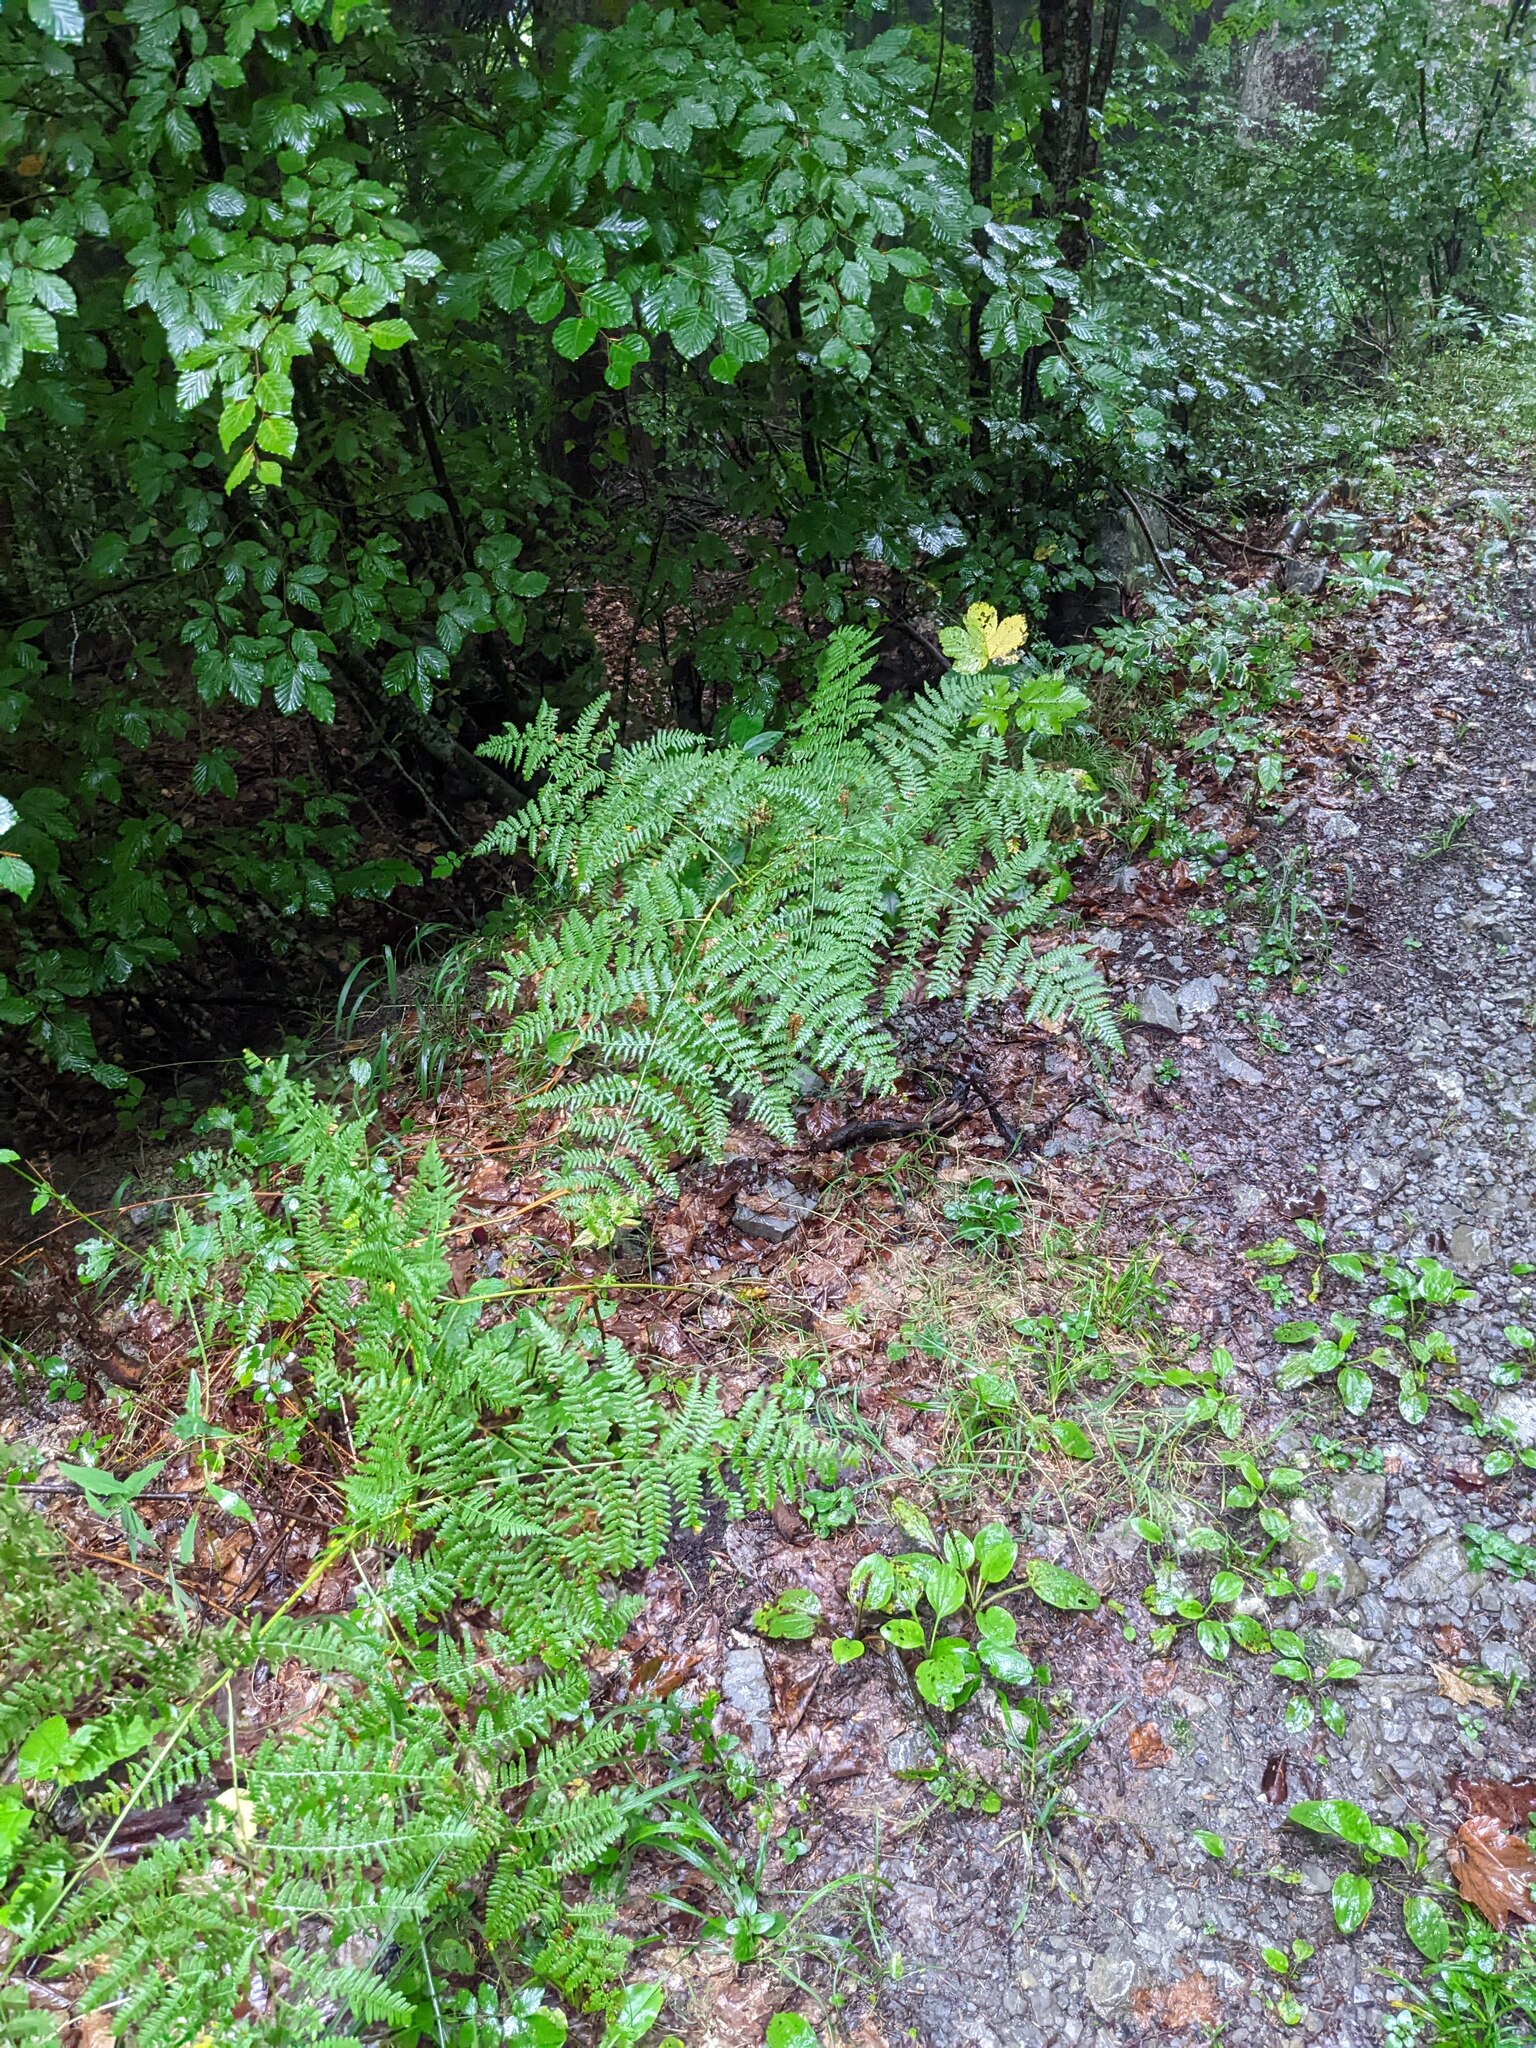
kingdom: Plantae
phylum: Tracheophyta
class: Polypodiopsida
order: Polypodiales
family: Dennstaedtiaceae
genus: Pteridium
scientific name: Pteridium aquilinum
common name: Bracken
